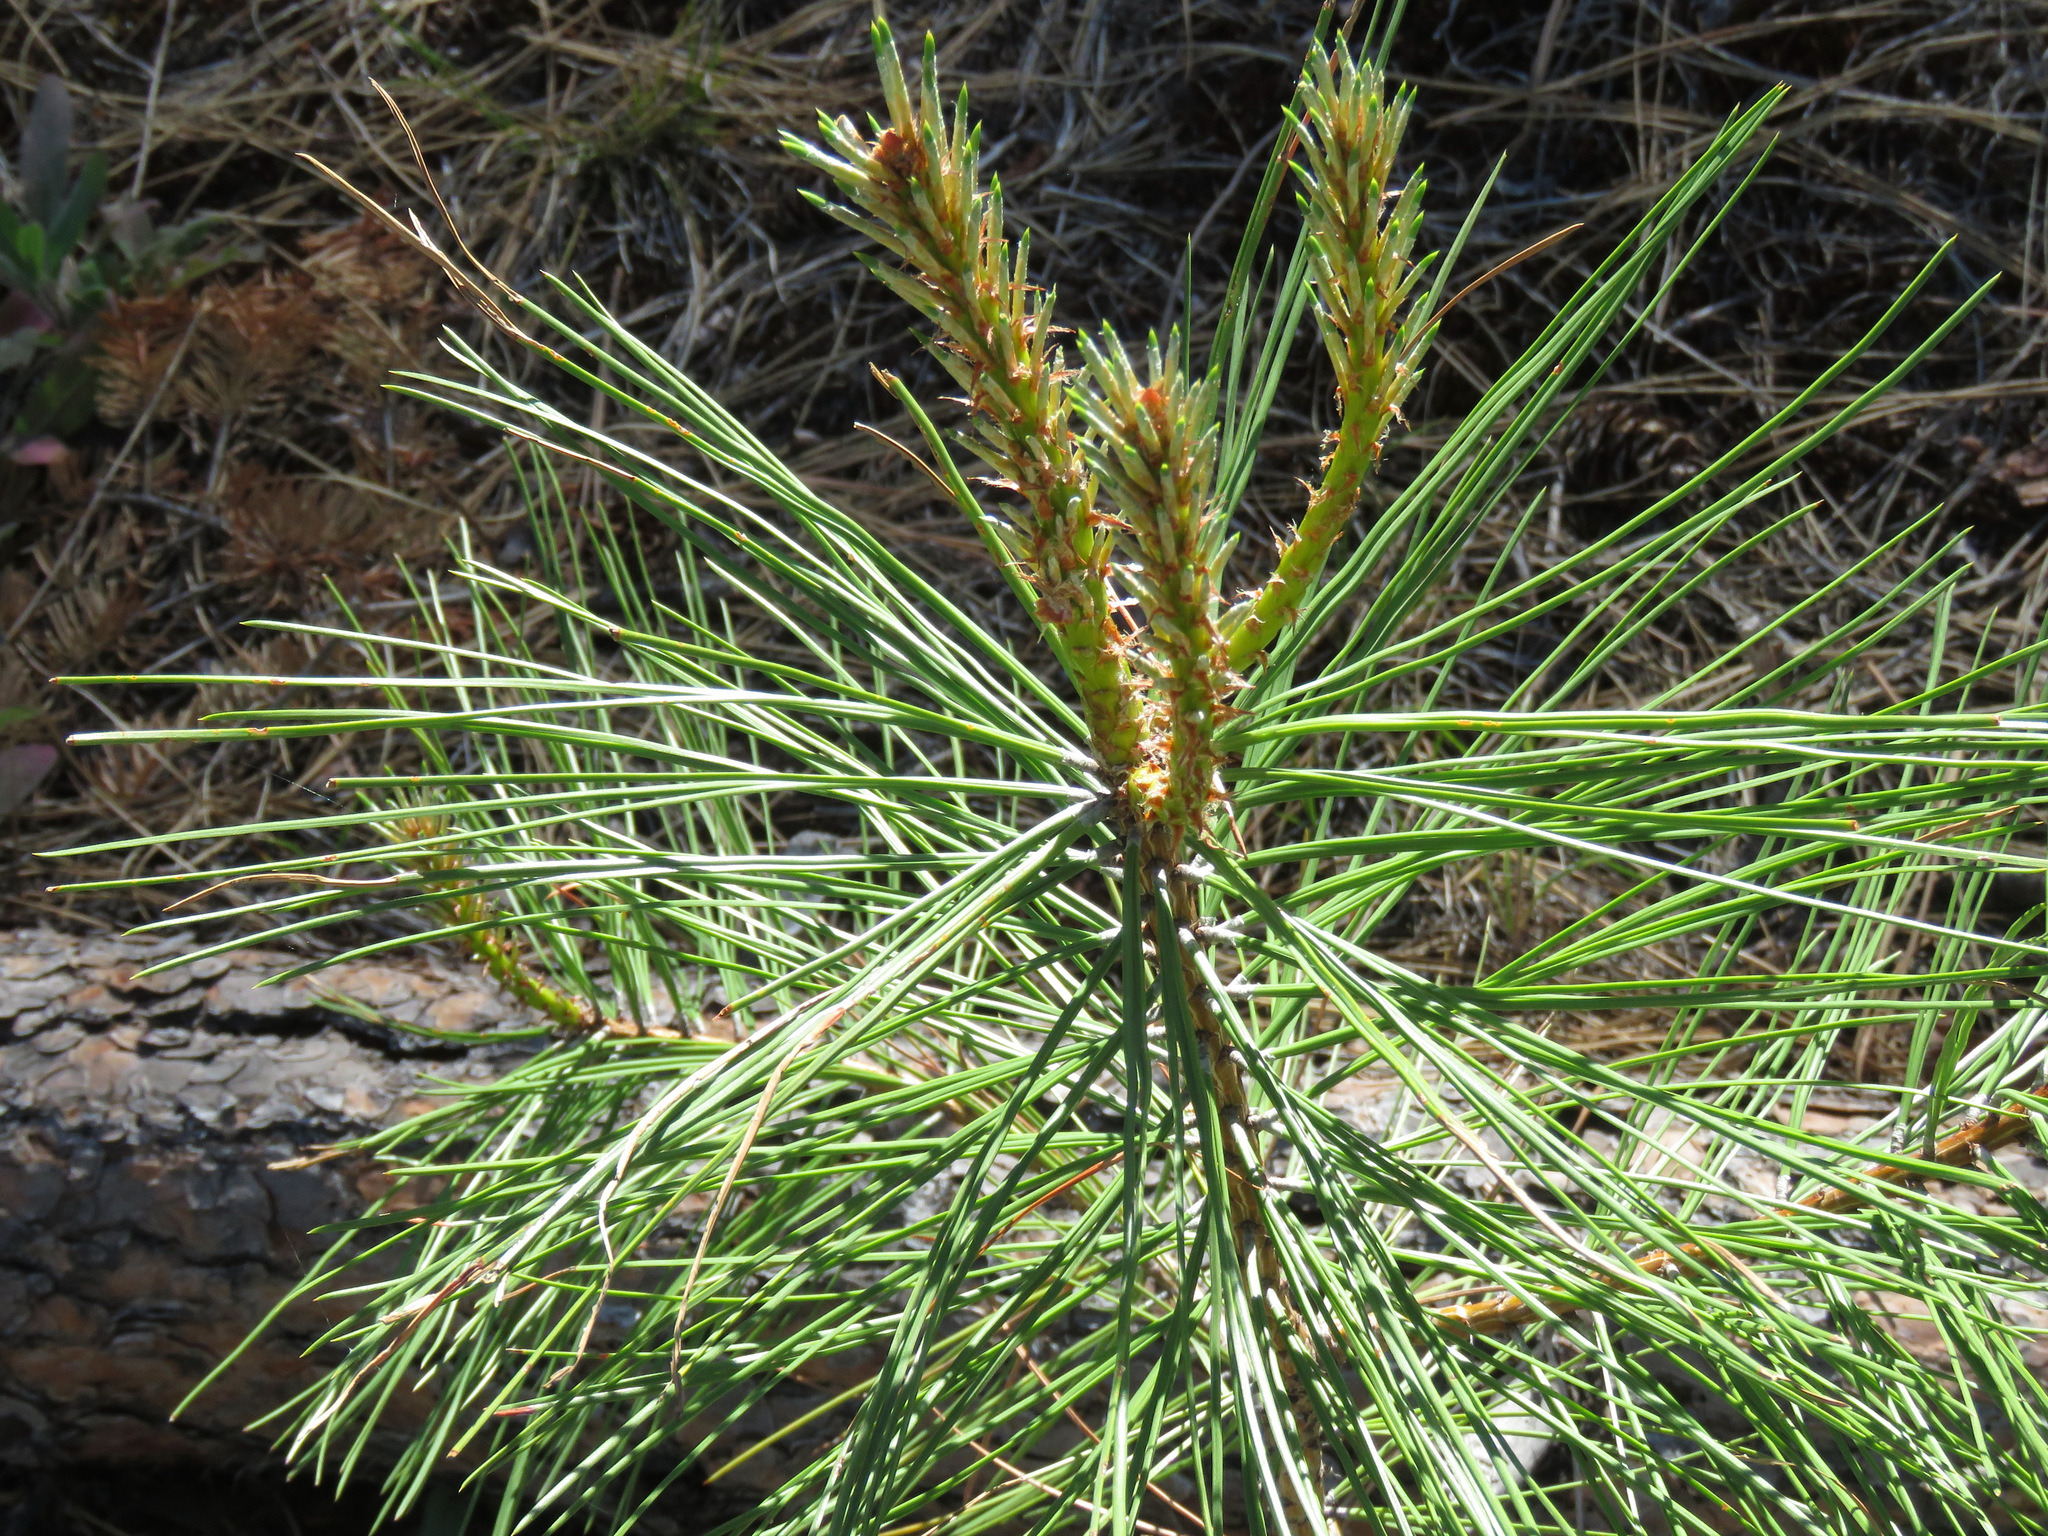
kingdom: Plantae
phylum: Tracheophyta
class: Pinopsida
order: Pinales
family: Pinaceae
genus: Pinus
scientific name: Pinus ponderosa
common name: Western yellow-pine
